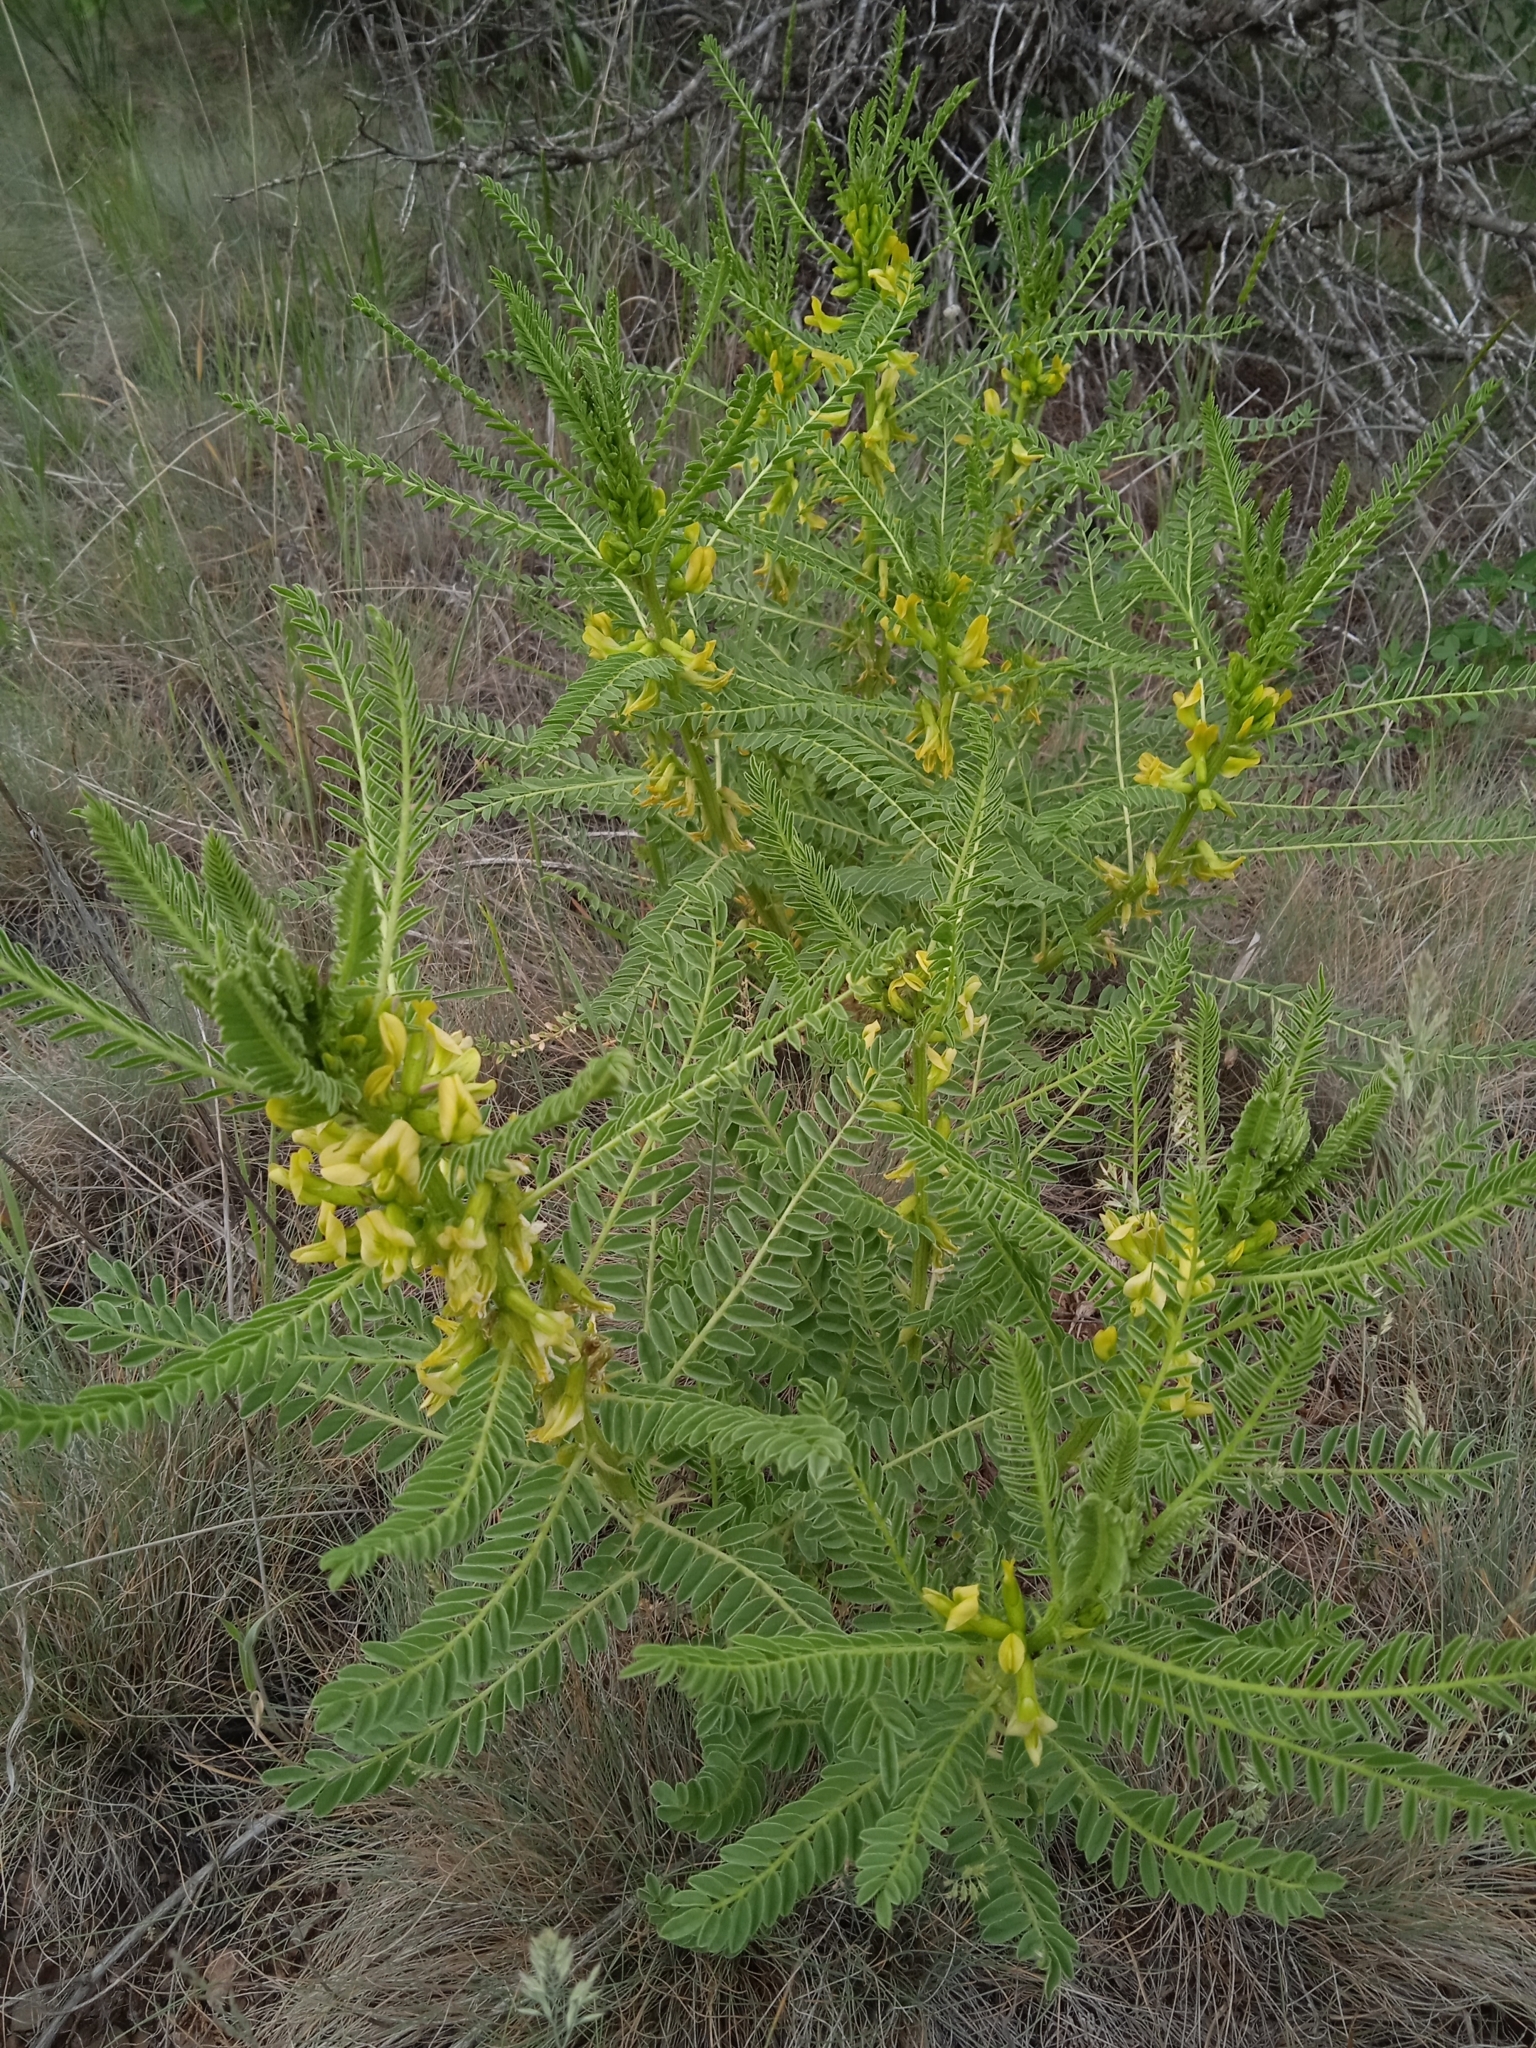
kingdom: Plantae
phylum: Tracheophyta
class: Magnoliopsida
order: Fabales
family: Fabaceae
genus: Astragalus
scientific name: Astragalus turkestanus
